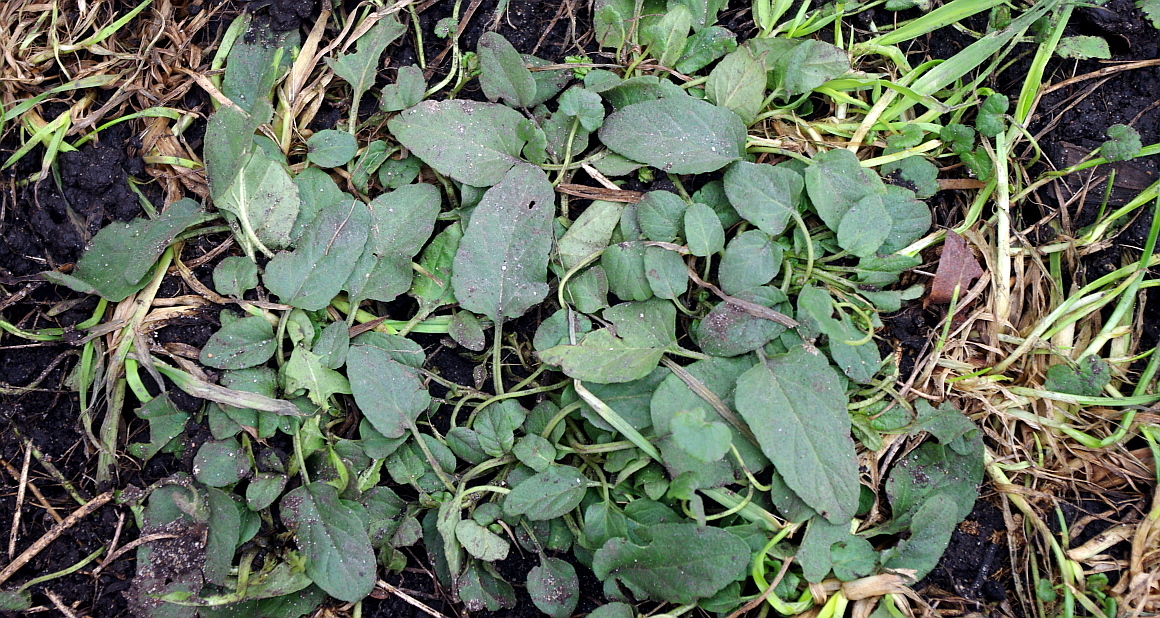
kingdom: Plantae
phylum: Tracheophyta
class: Magnoliopsida
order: Lamiales
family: Lamiaceae
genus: Prunella
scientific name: Prunella vulgaris
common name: Heal-all
